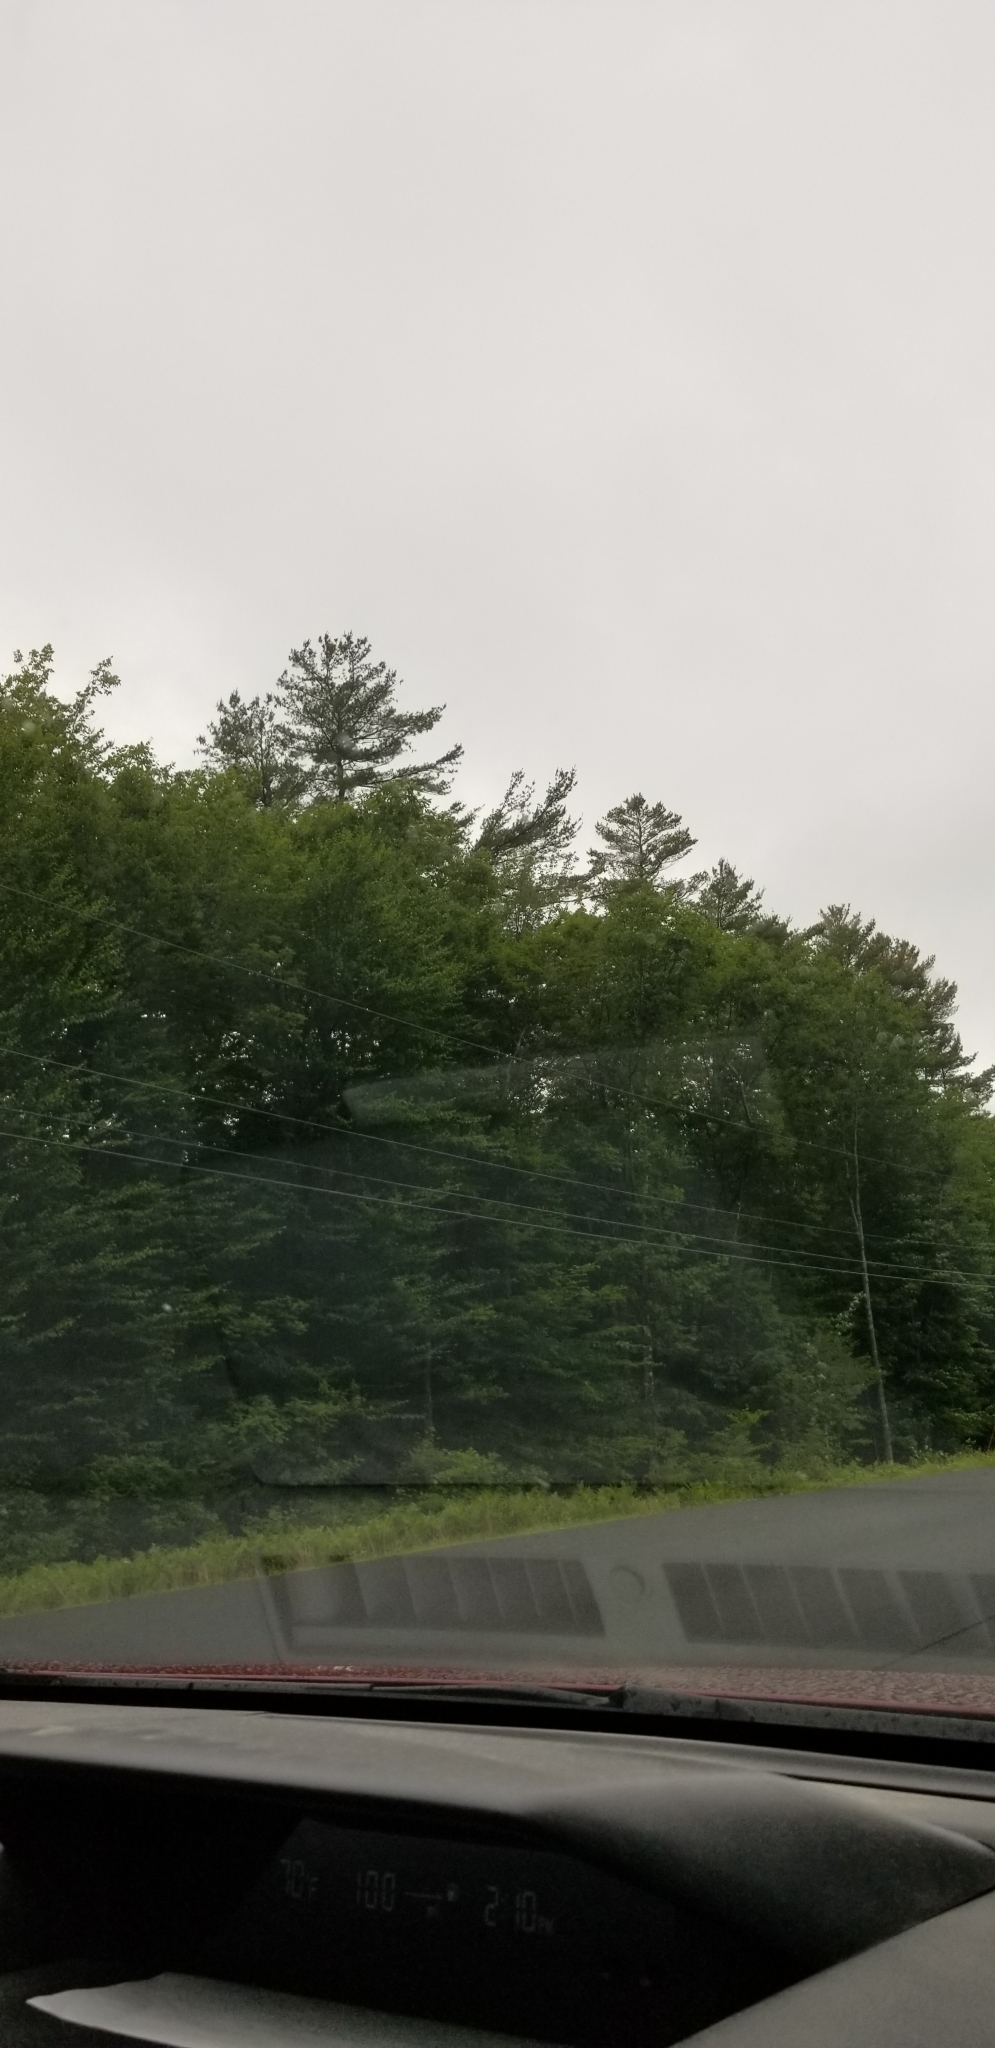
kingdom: Plantae
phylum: Tracheophyta
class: Pinopsida
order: Pinales
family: Pinaceae
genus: Pinus
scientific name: Pinus strobus
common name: Weymouth pine
